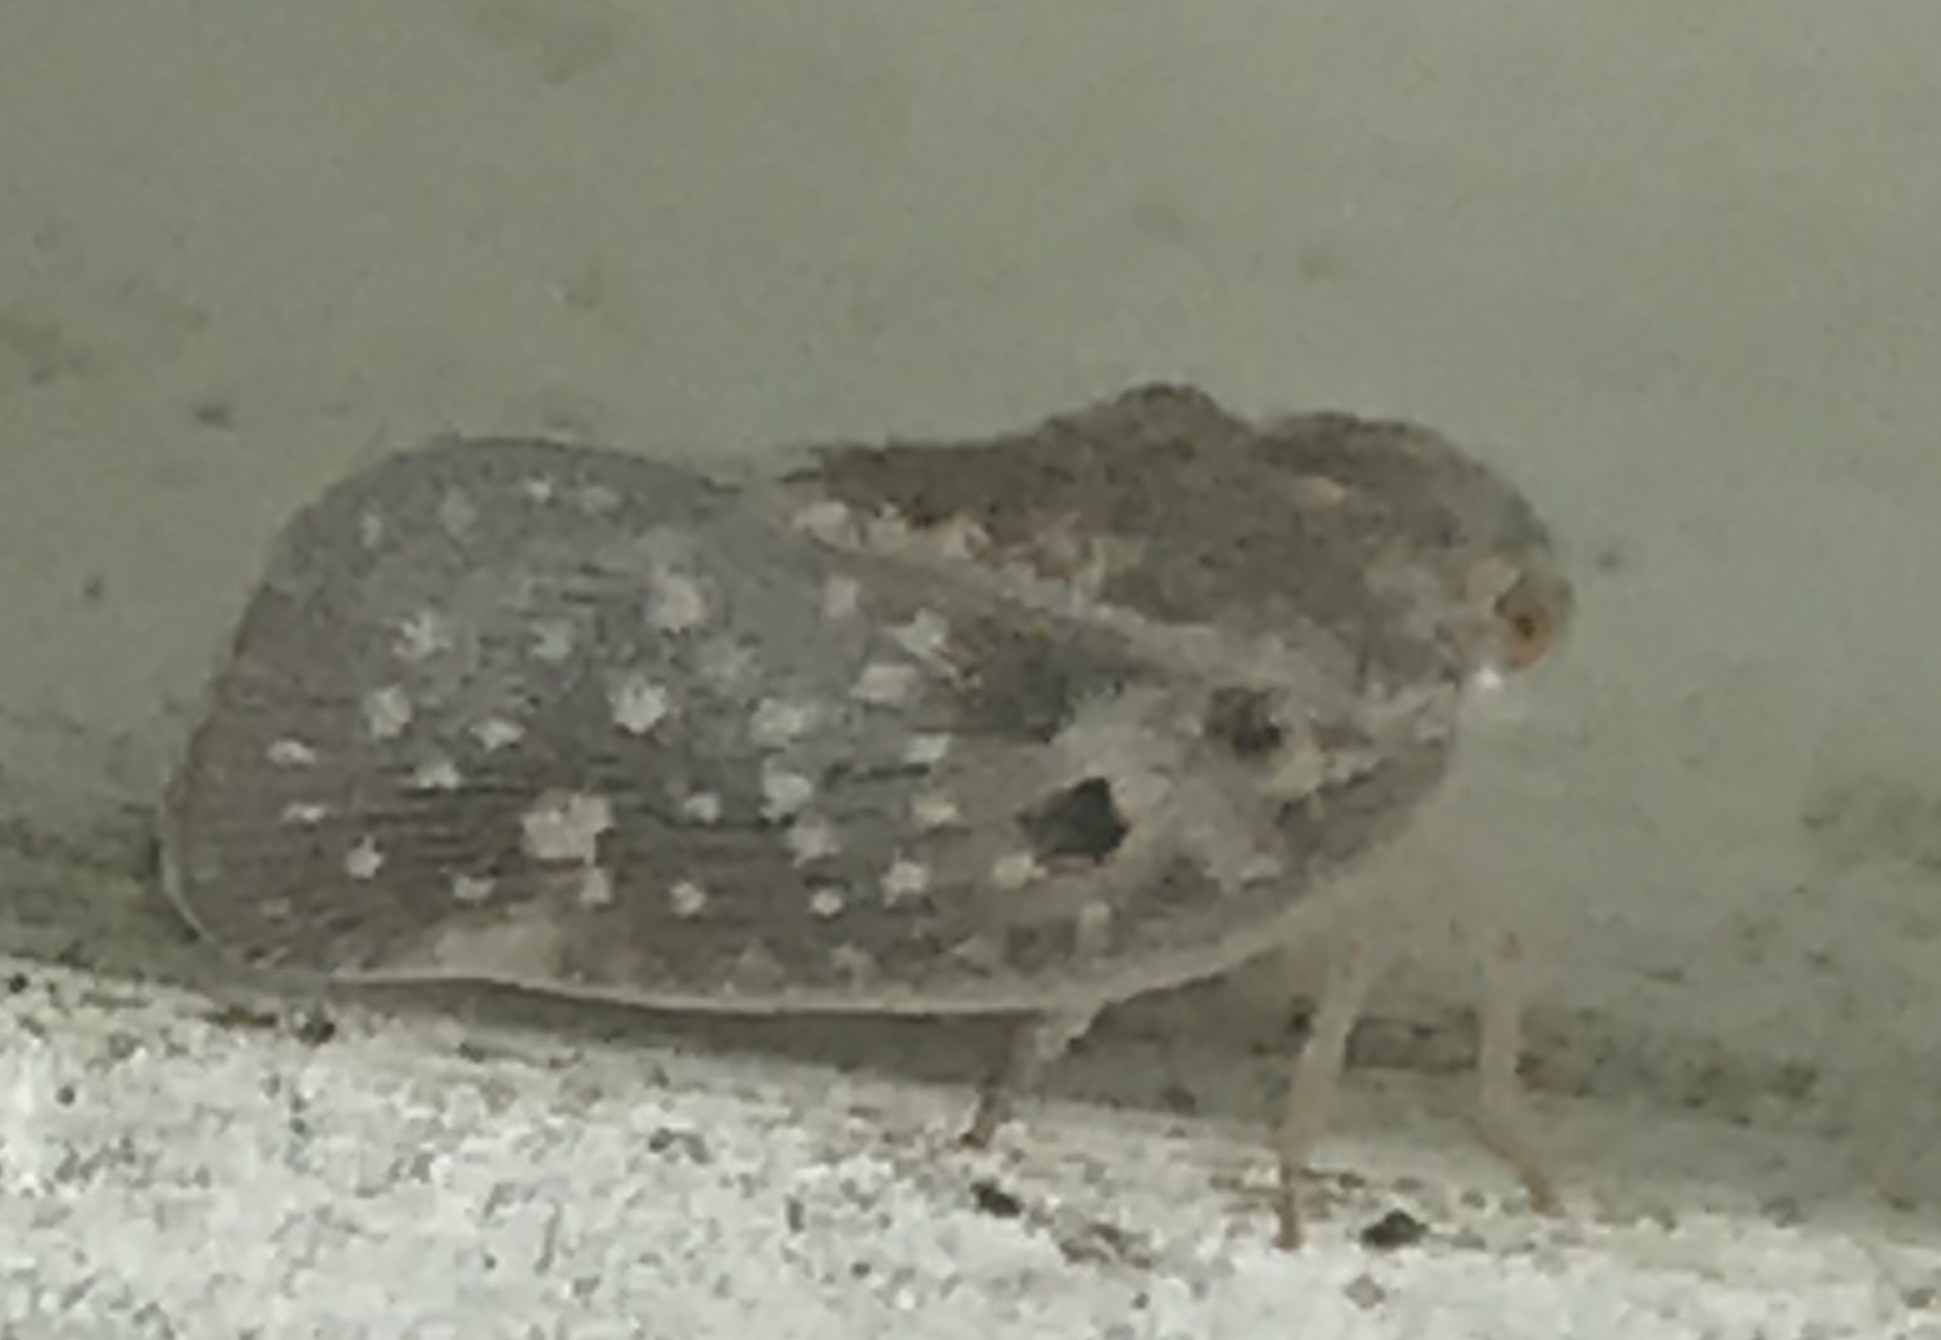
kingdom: Animalia
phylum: Arthropoda
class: Insecta
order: Hemiptera
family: Flatidae
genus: Metcalfa
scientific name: Metcalfa pruinosa
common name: Citrus flatid planthopper
